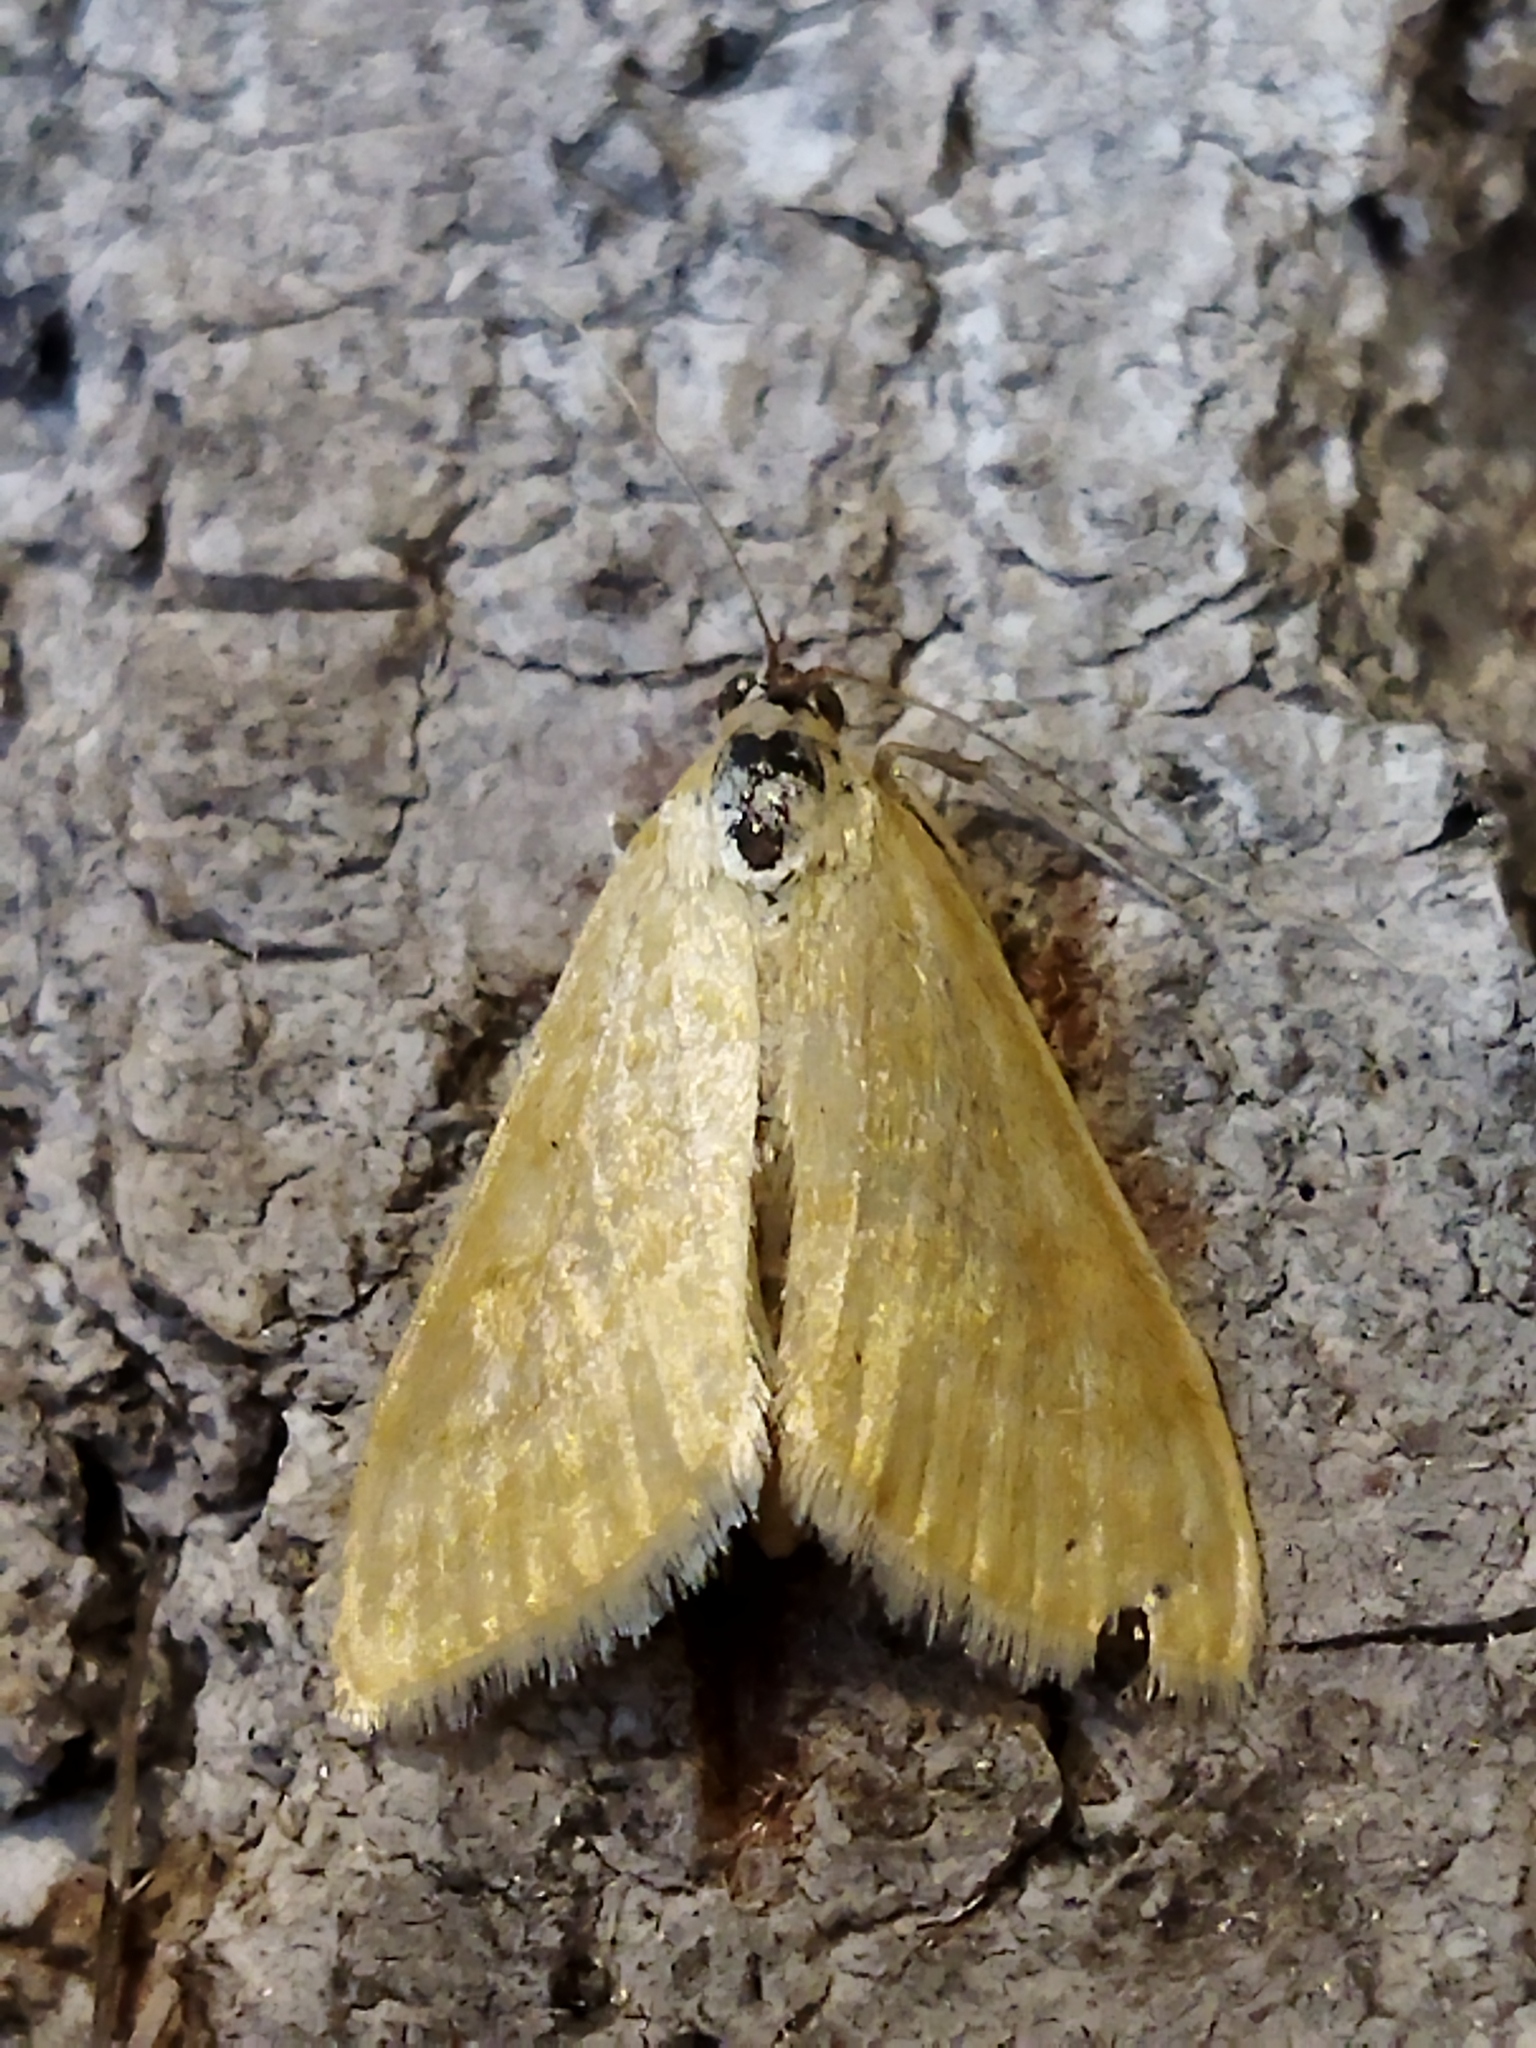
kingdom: Animalia
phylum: Arthropoda
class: Insecta
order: Lepidoptera
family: Crambidae
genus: Sitochroa
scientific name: Sitochroa verticalis
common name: Lesser pearl
